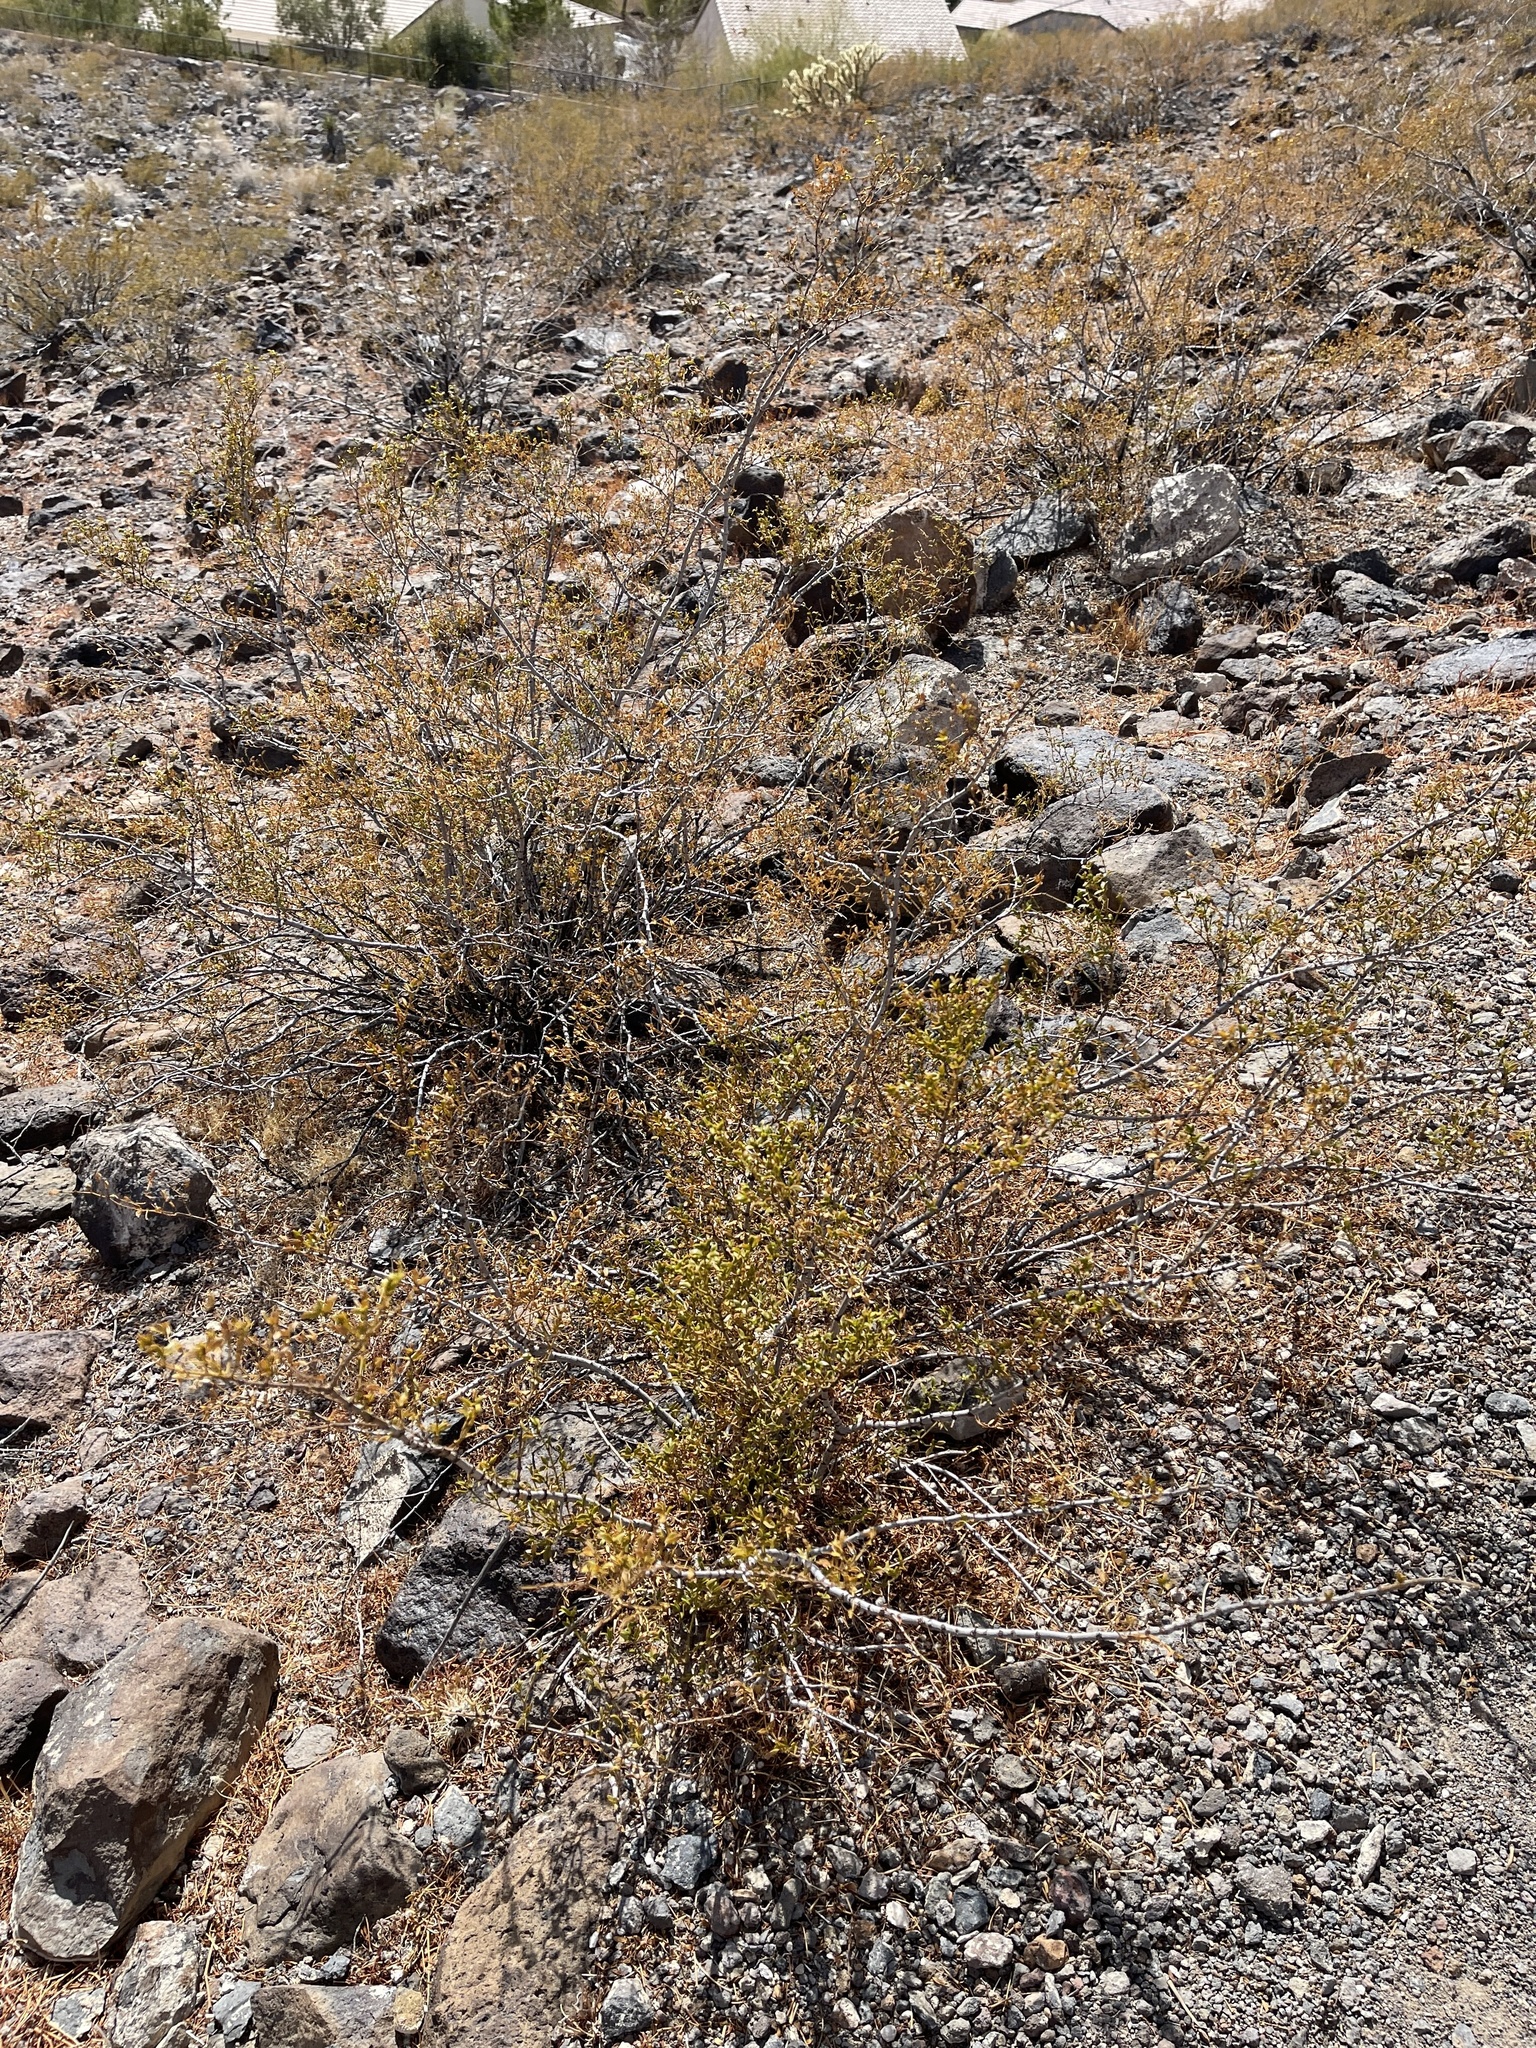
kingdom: Plantae
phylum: Tracheophyta
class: Magnoliopsida
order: Zygophyllales
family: Zygophyllaceae
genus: Larrea
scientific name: Larrea tridentata
